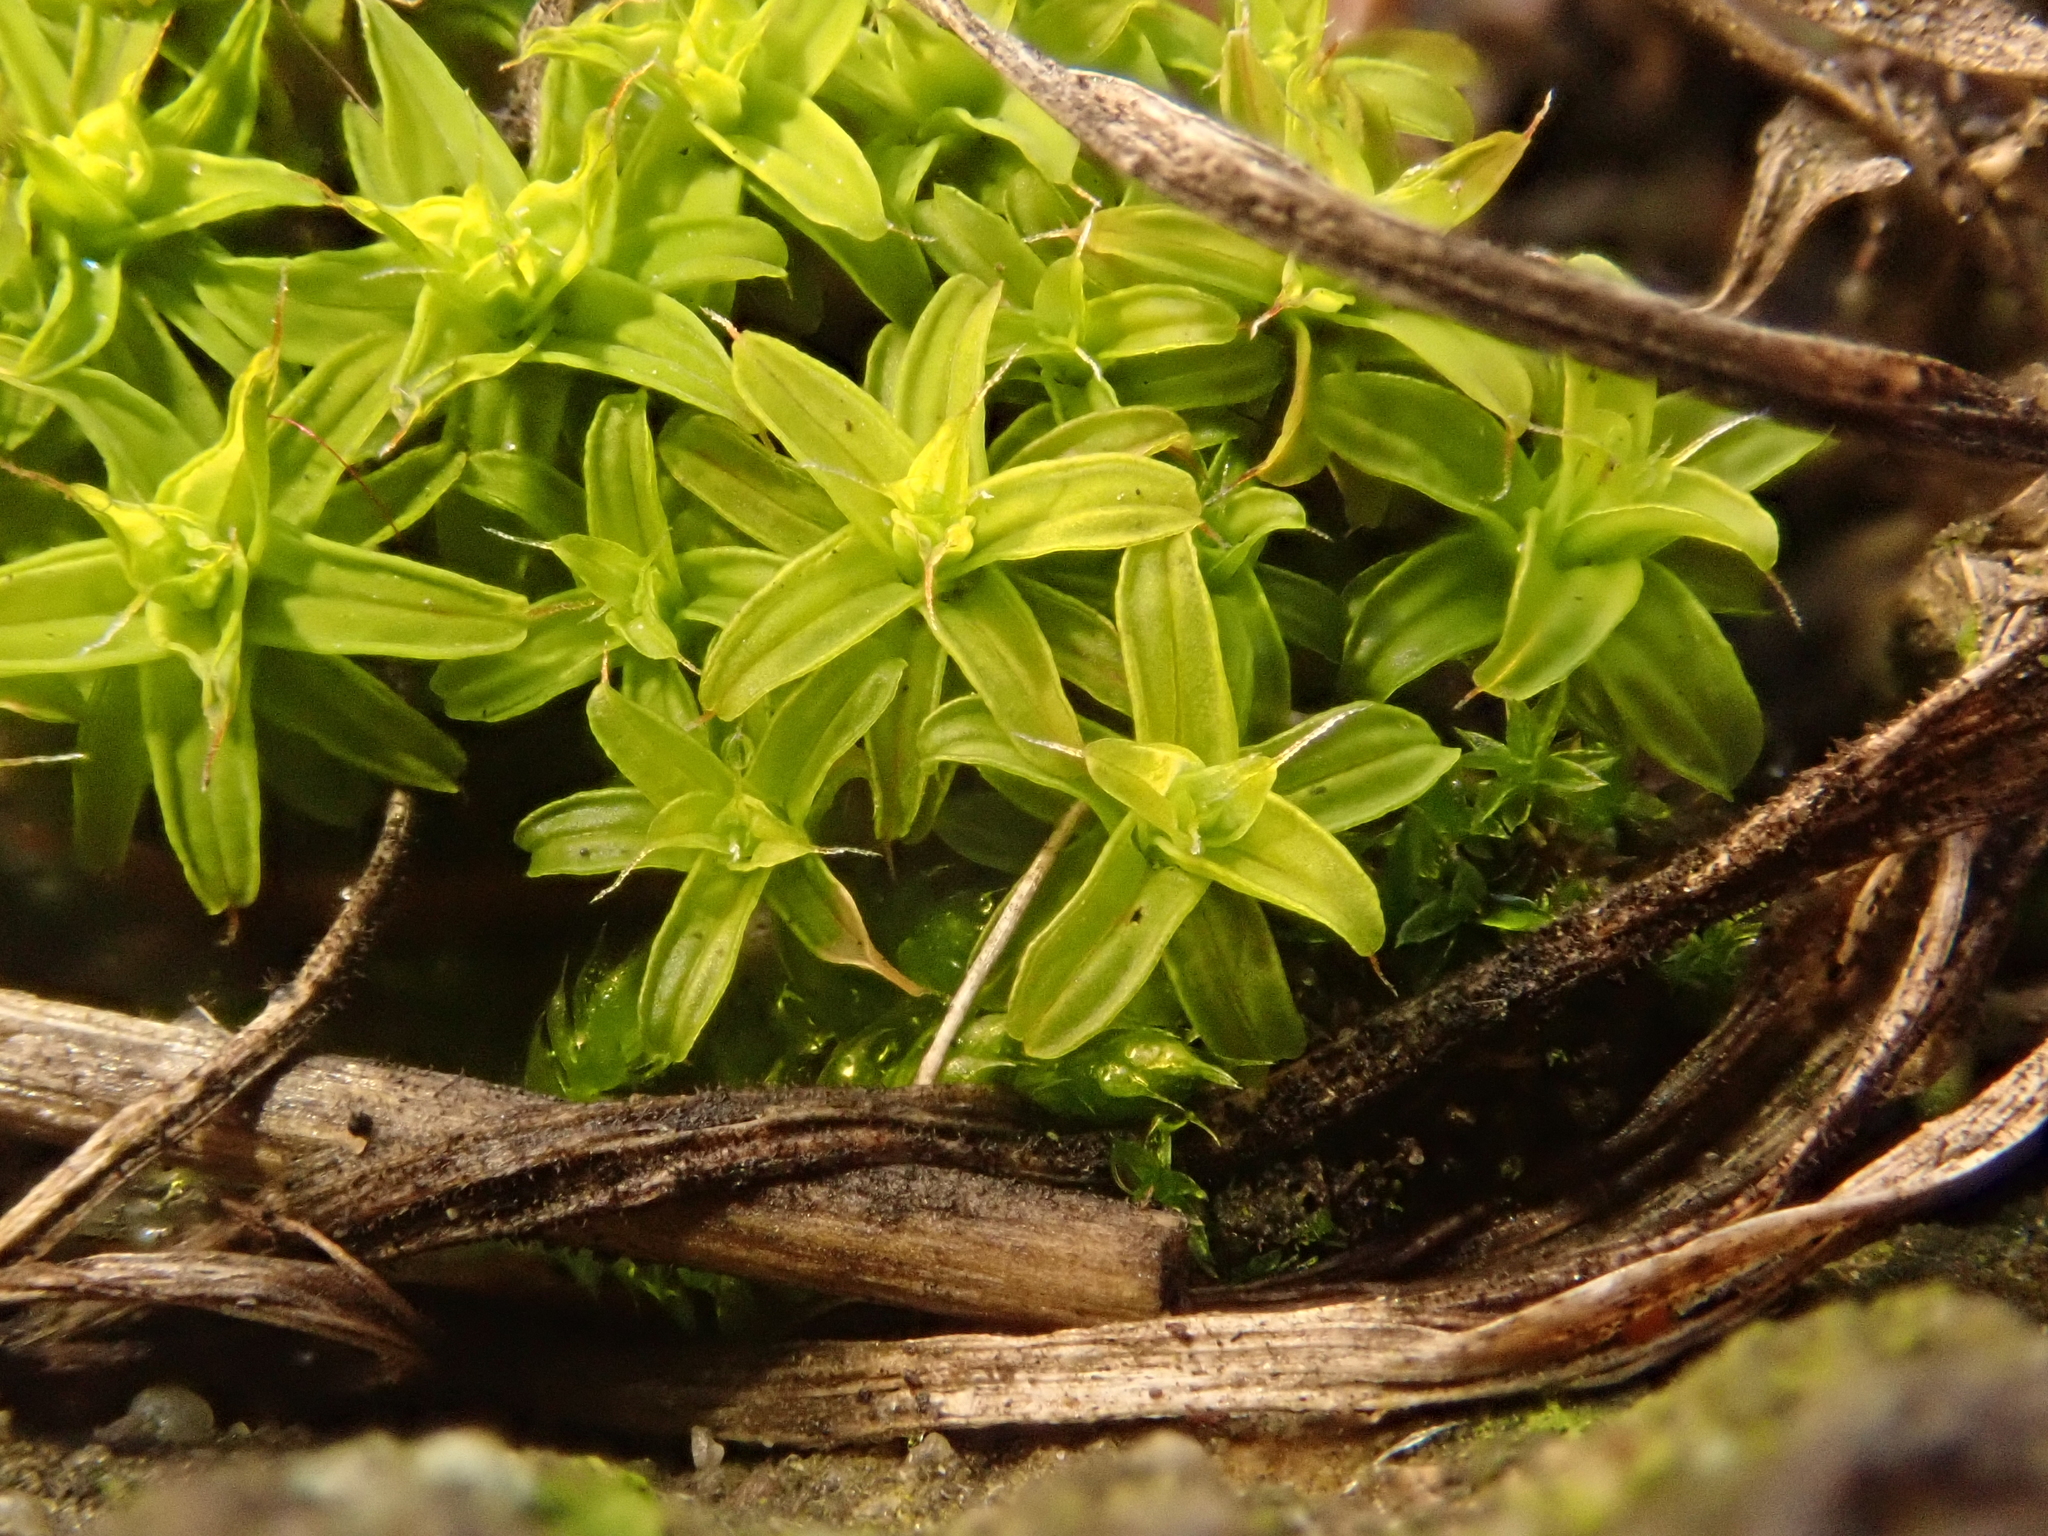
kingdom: Plantae
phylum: Bryophyta
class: Bryopsida
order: Pottiales
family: Pottiaceae
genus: Syntrichia
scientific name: Syntrichia ruralis
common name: Sidewalk screw moss
